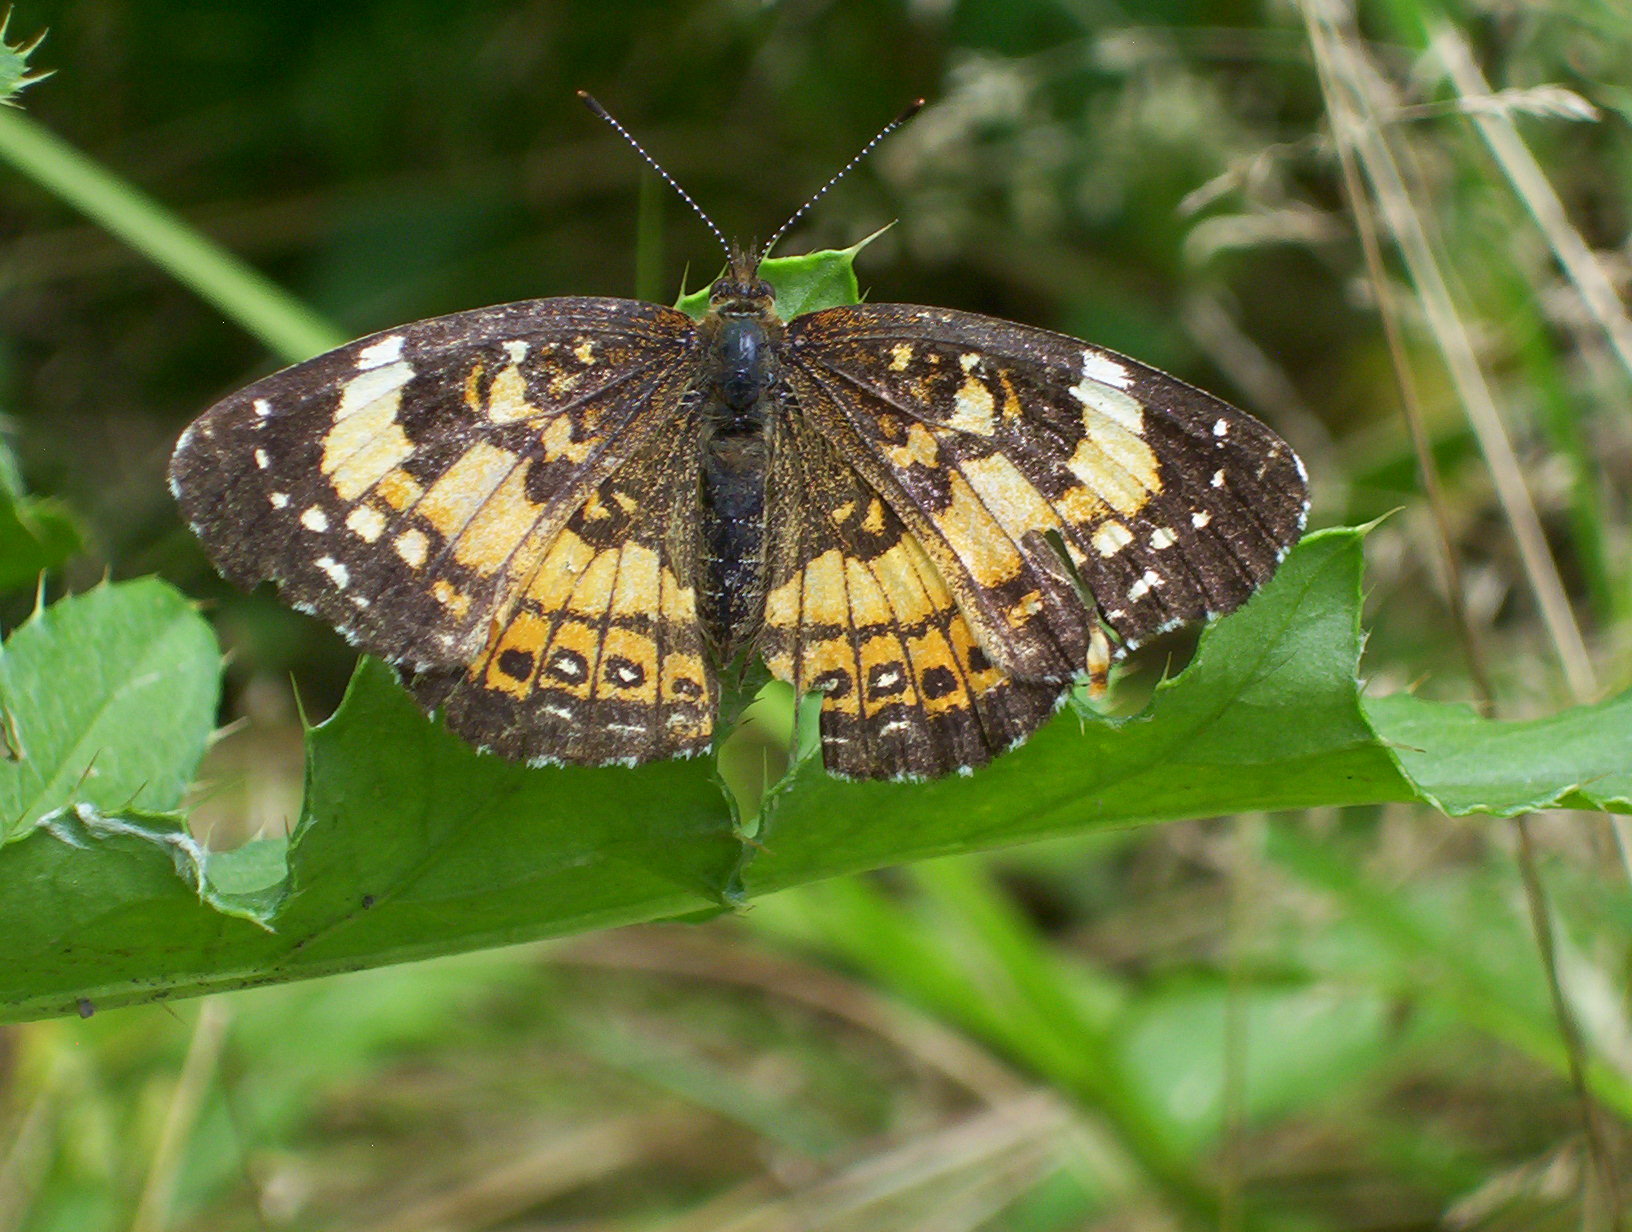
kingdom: Animalia
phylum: Arthropoda
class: Insecta
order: Lepidoptera
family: Nymphalidae
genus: Chlosyne
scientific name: Chlosyne nycteis
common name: Silvery checkerspot
